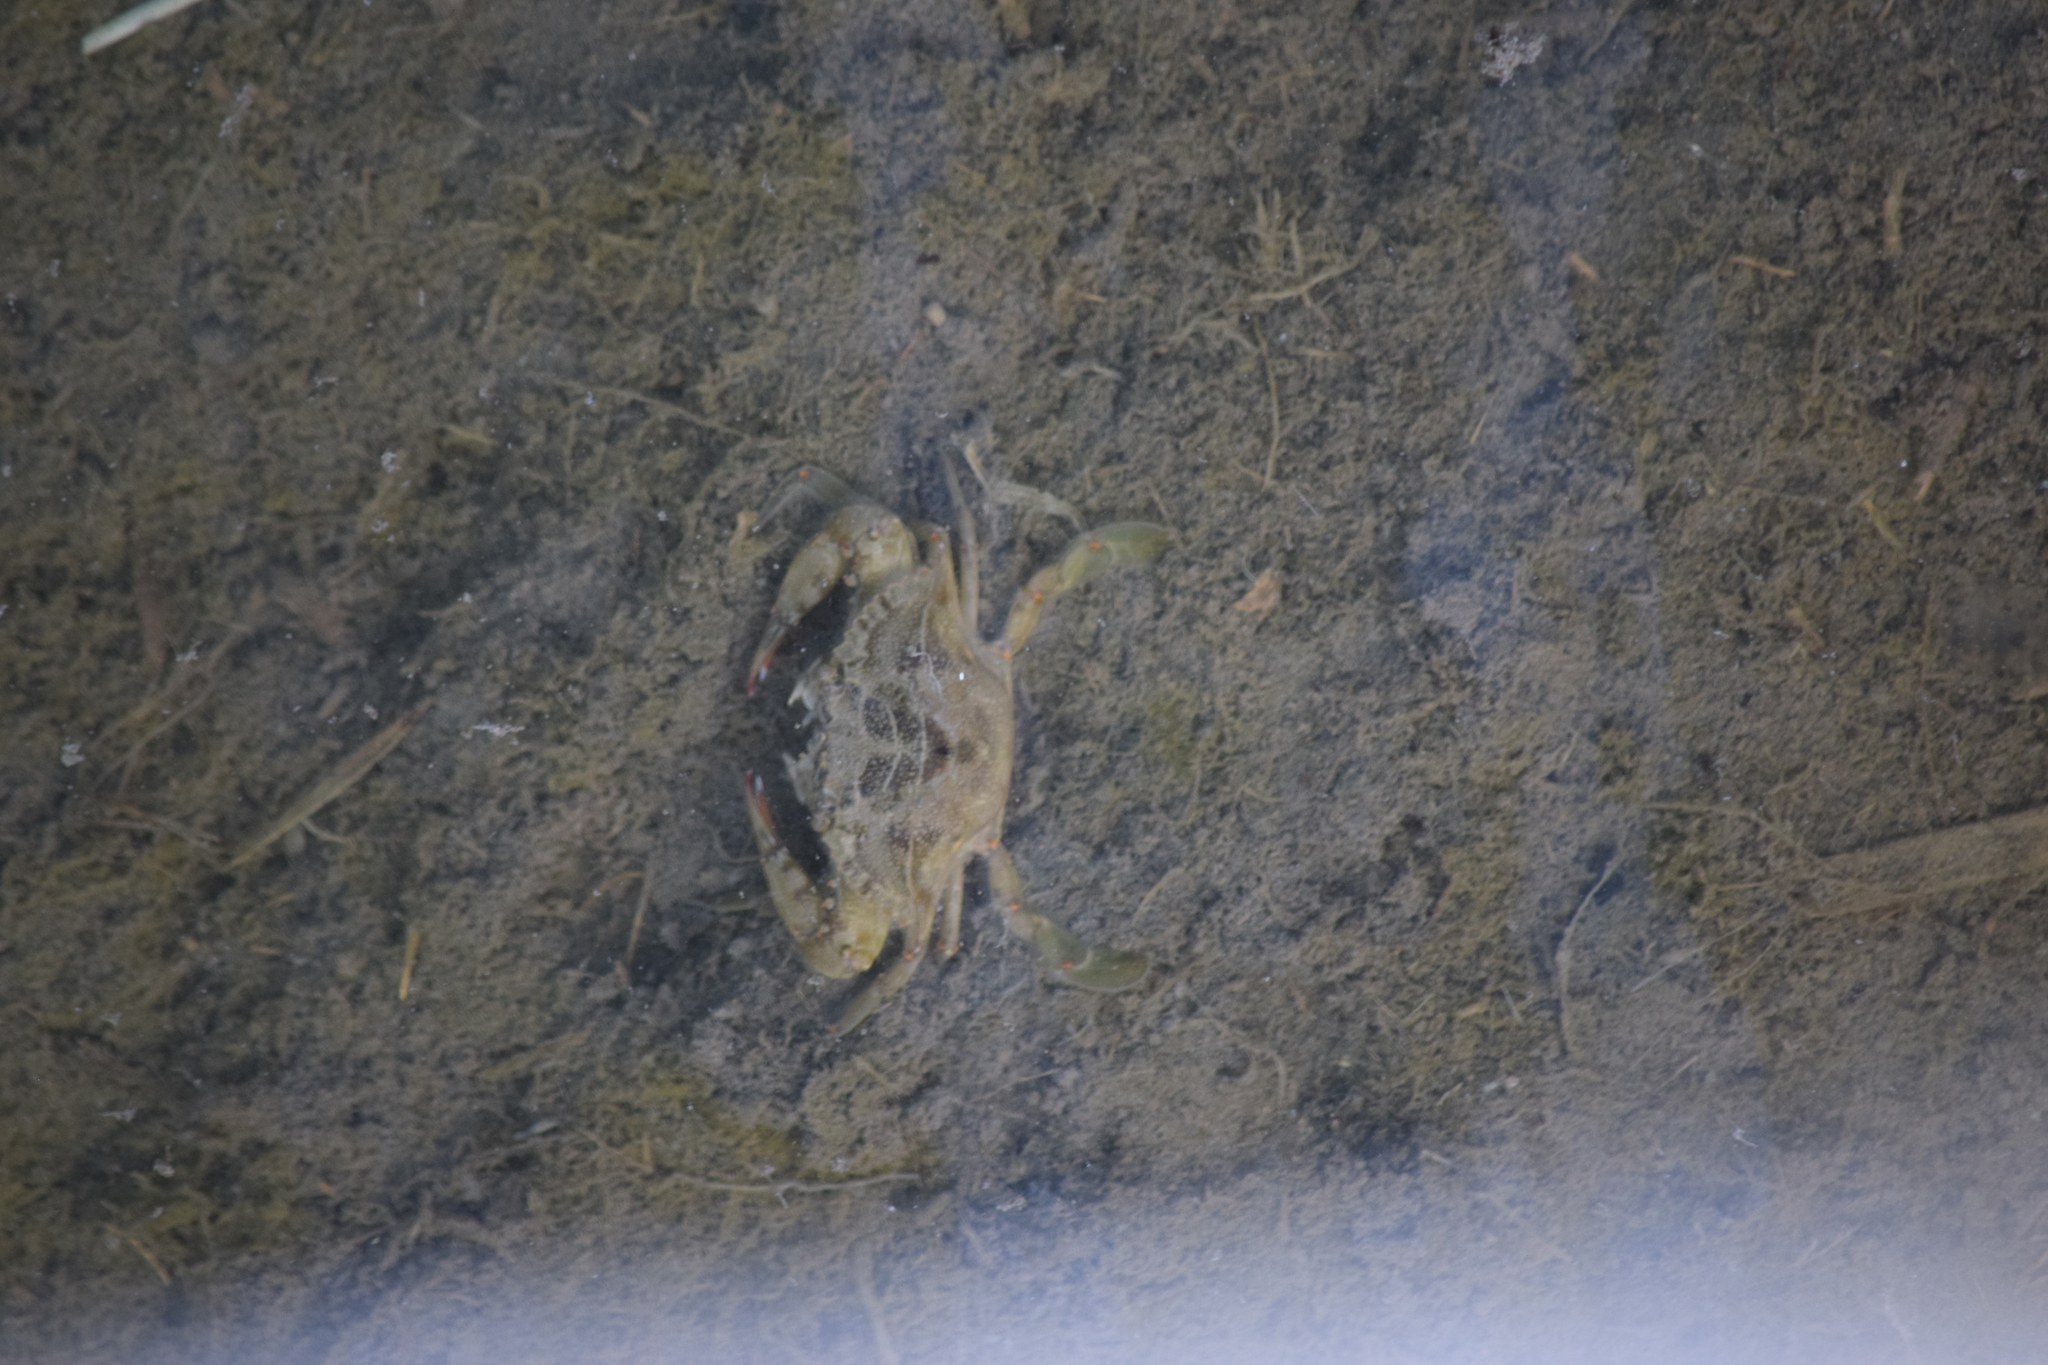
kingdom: Animalia
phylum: Arthropoda
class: Malacostraca
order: Decapoda
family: Portunidae
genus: Callinectes
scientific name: Callinectes sapidus
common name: Blue crab
